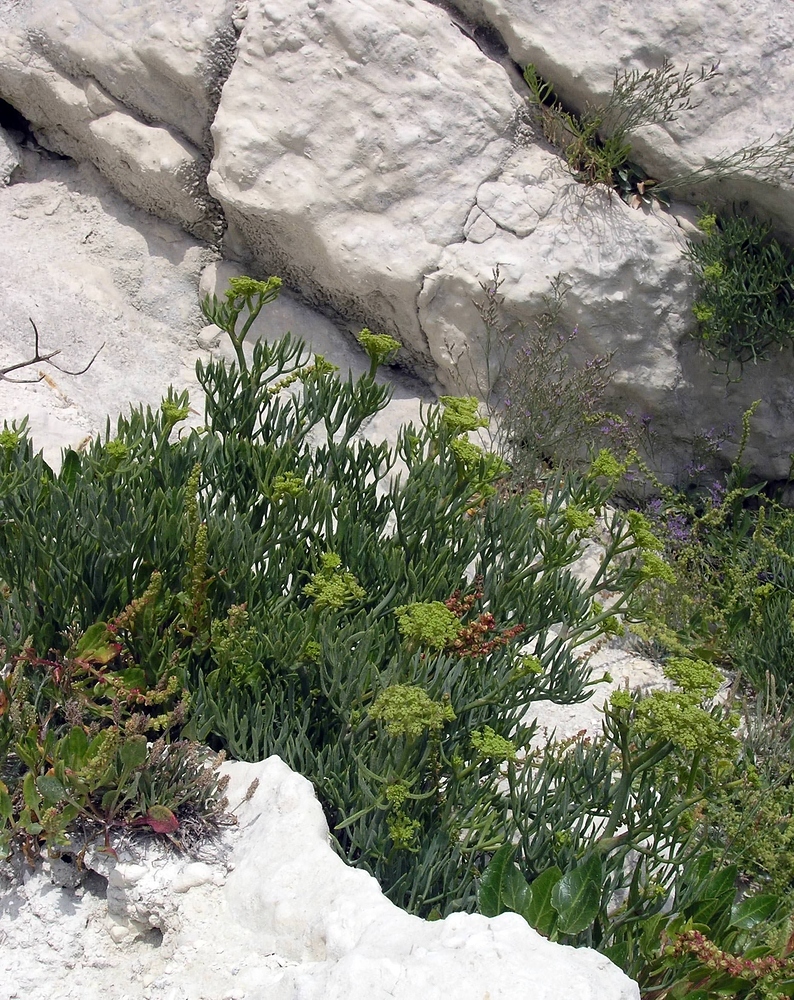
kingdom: Plantae
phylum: Tracheophyta
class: Magnoliopsida
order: Apiales
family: Apiaceae
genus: Crithmum
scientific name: Crithmum maritimum
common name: Rock samphire
